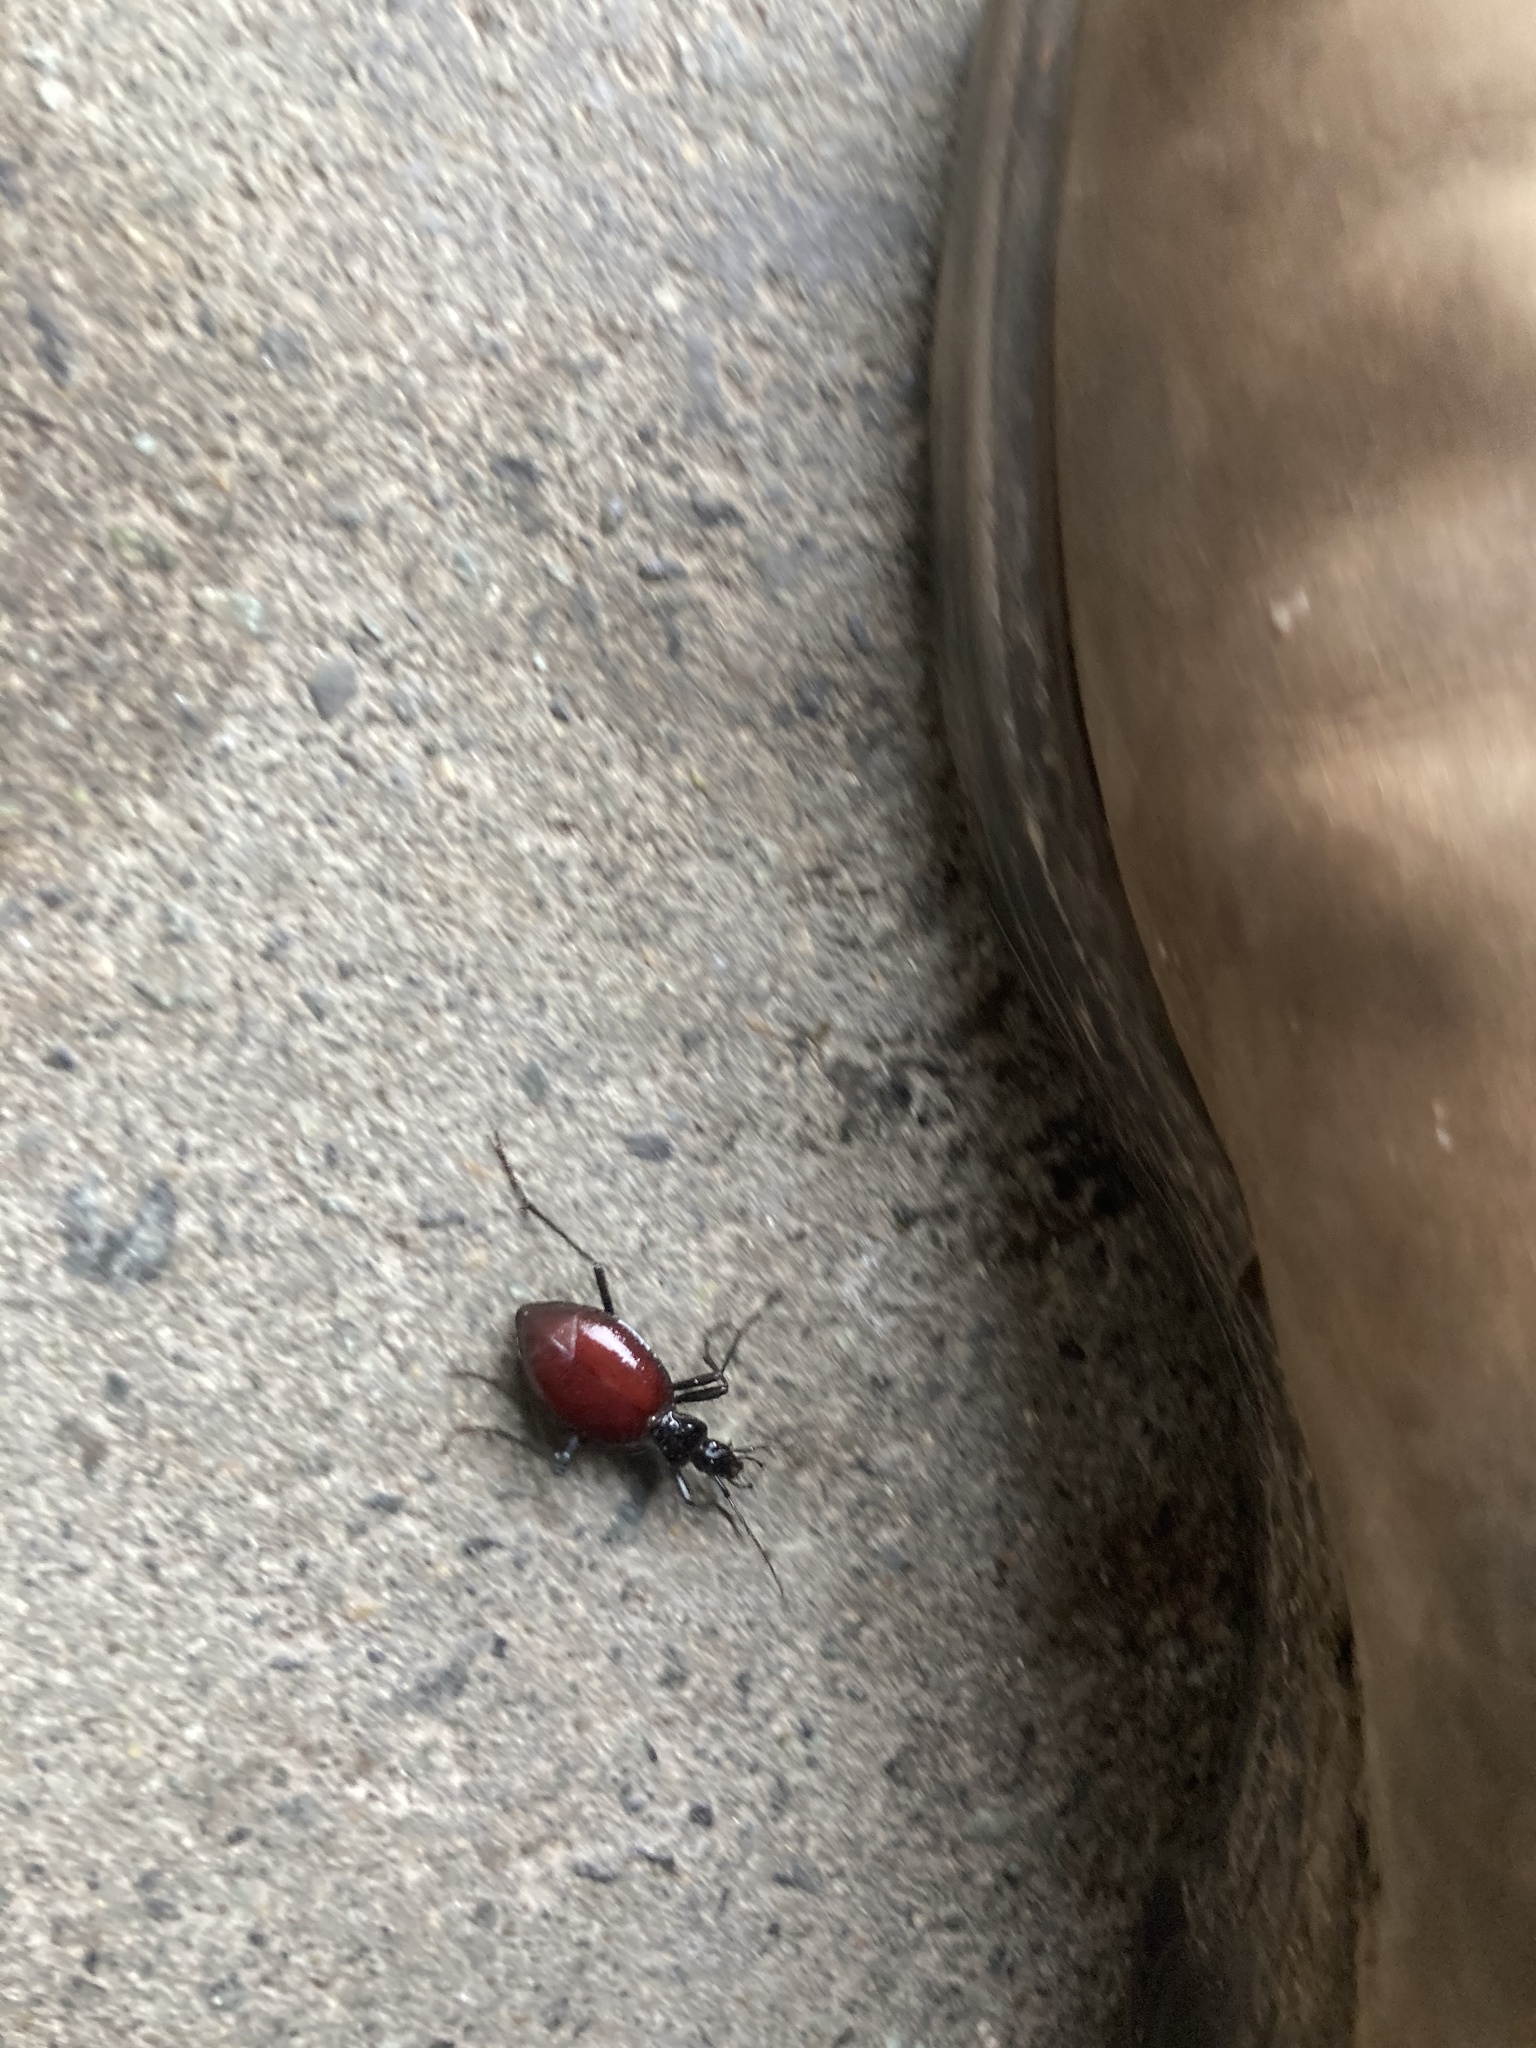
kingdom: Animalia
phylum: Arthropoda
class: Insecta
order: Coleoptera
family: Carabidae
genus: Scaphinotus
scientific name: Scaphinotus angusticollis
